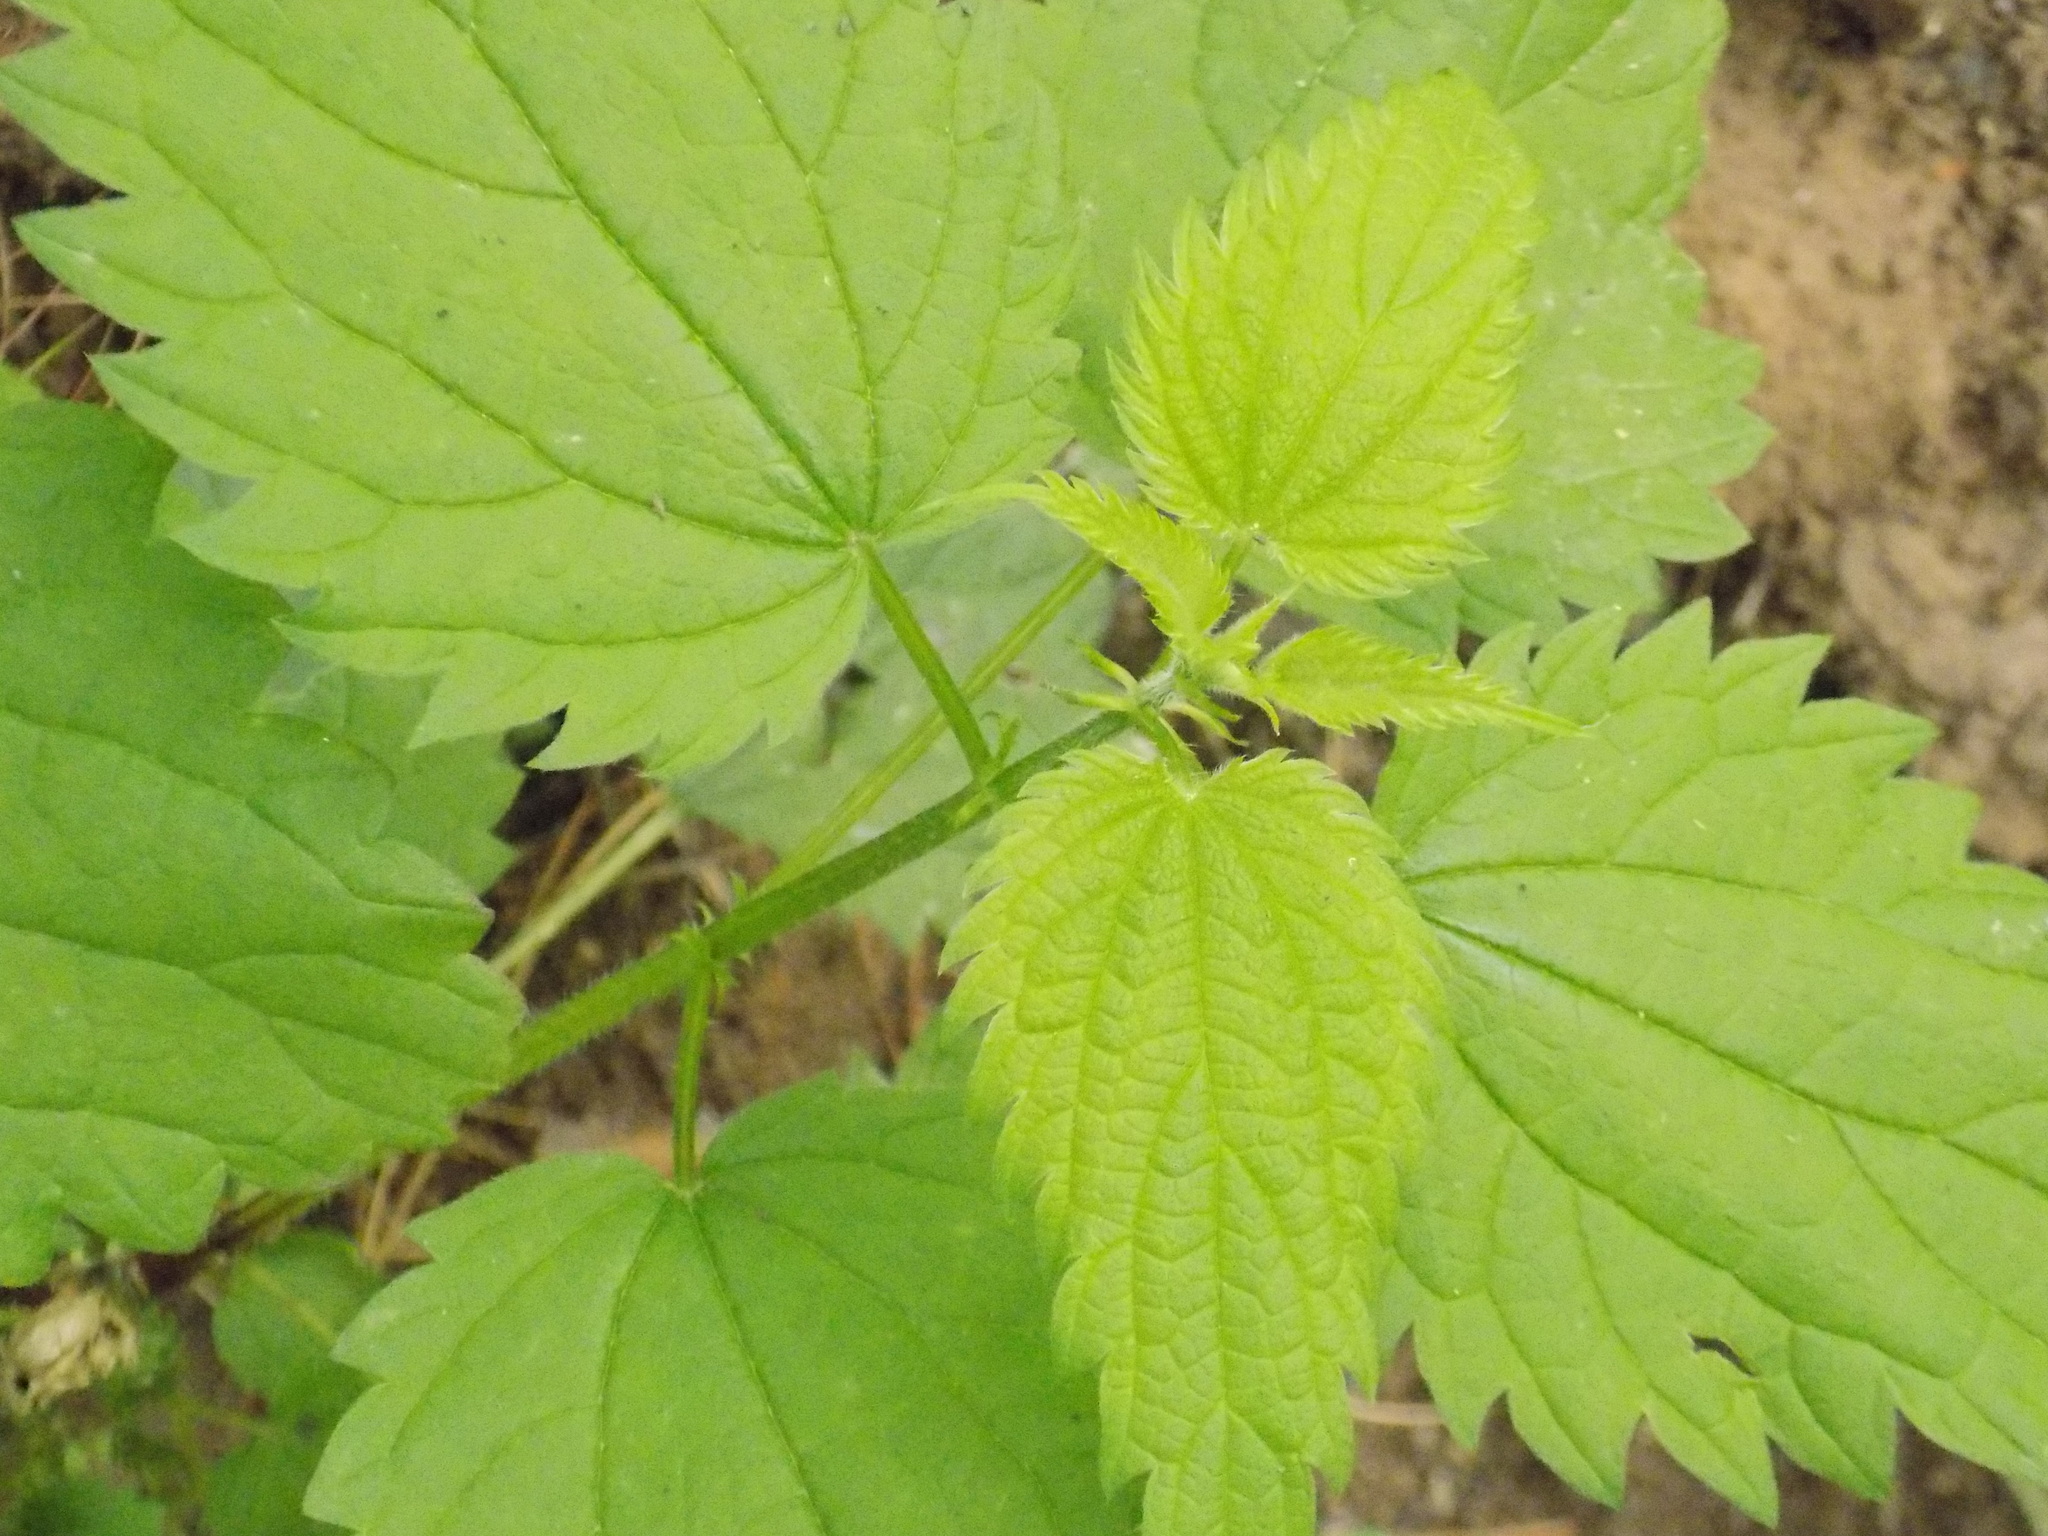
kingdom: Plantae
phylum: Tracheophyta
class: Magnoliopsida
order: Rosales
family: Urticaceae
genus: Urtica
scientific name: Urtica dioica
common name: Common nettle
